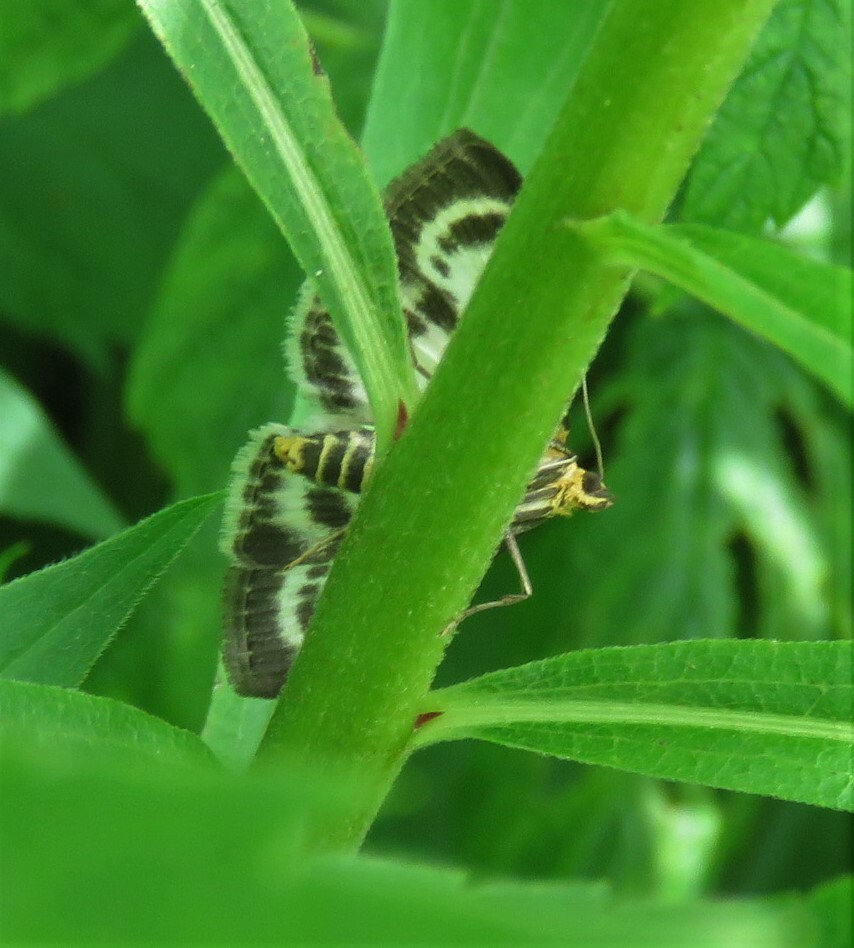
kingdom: Animalia
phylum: Arthropoda
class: Insecta
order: Lepidoptera
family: Crambidae
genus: Anania
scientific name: Anania hortulata
